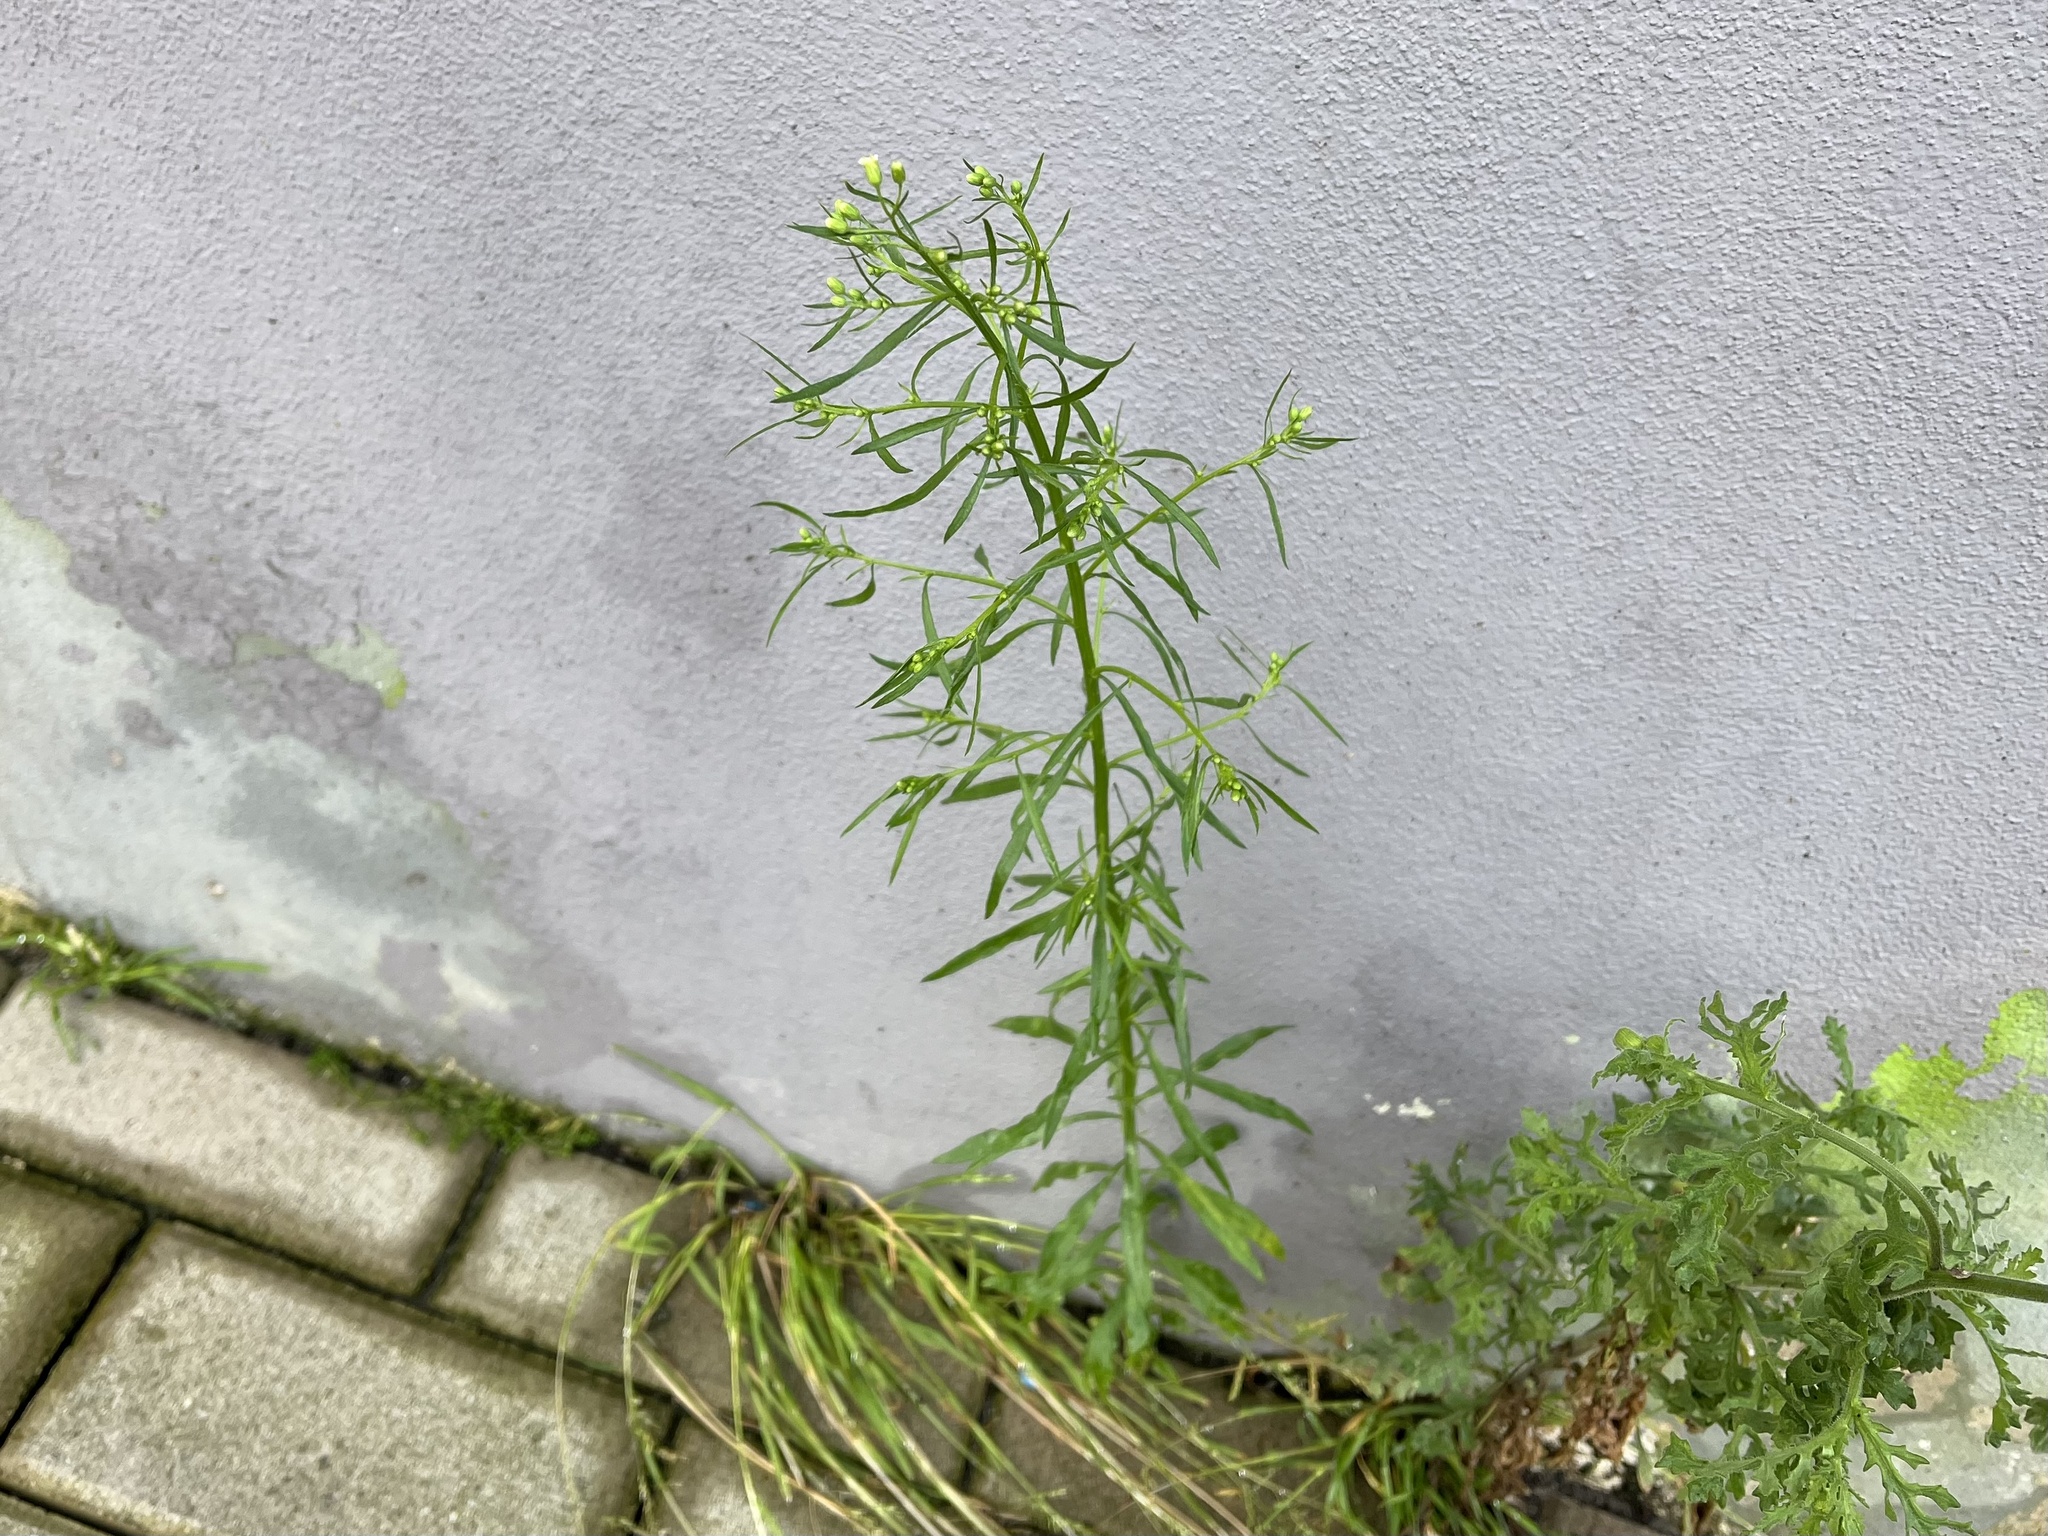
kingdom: Plantae
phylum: Tracheophyta
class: Magnoliopsida
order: Asterales
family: Asteraceae
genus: Erigeron
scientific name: Erigeron canadensis
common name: Canadian fleabane
